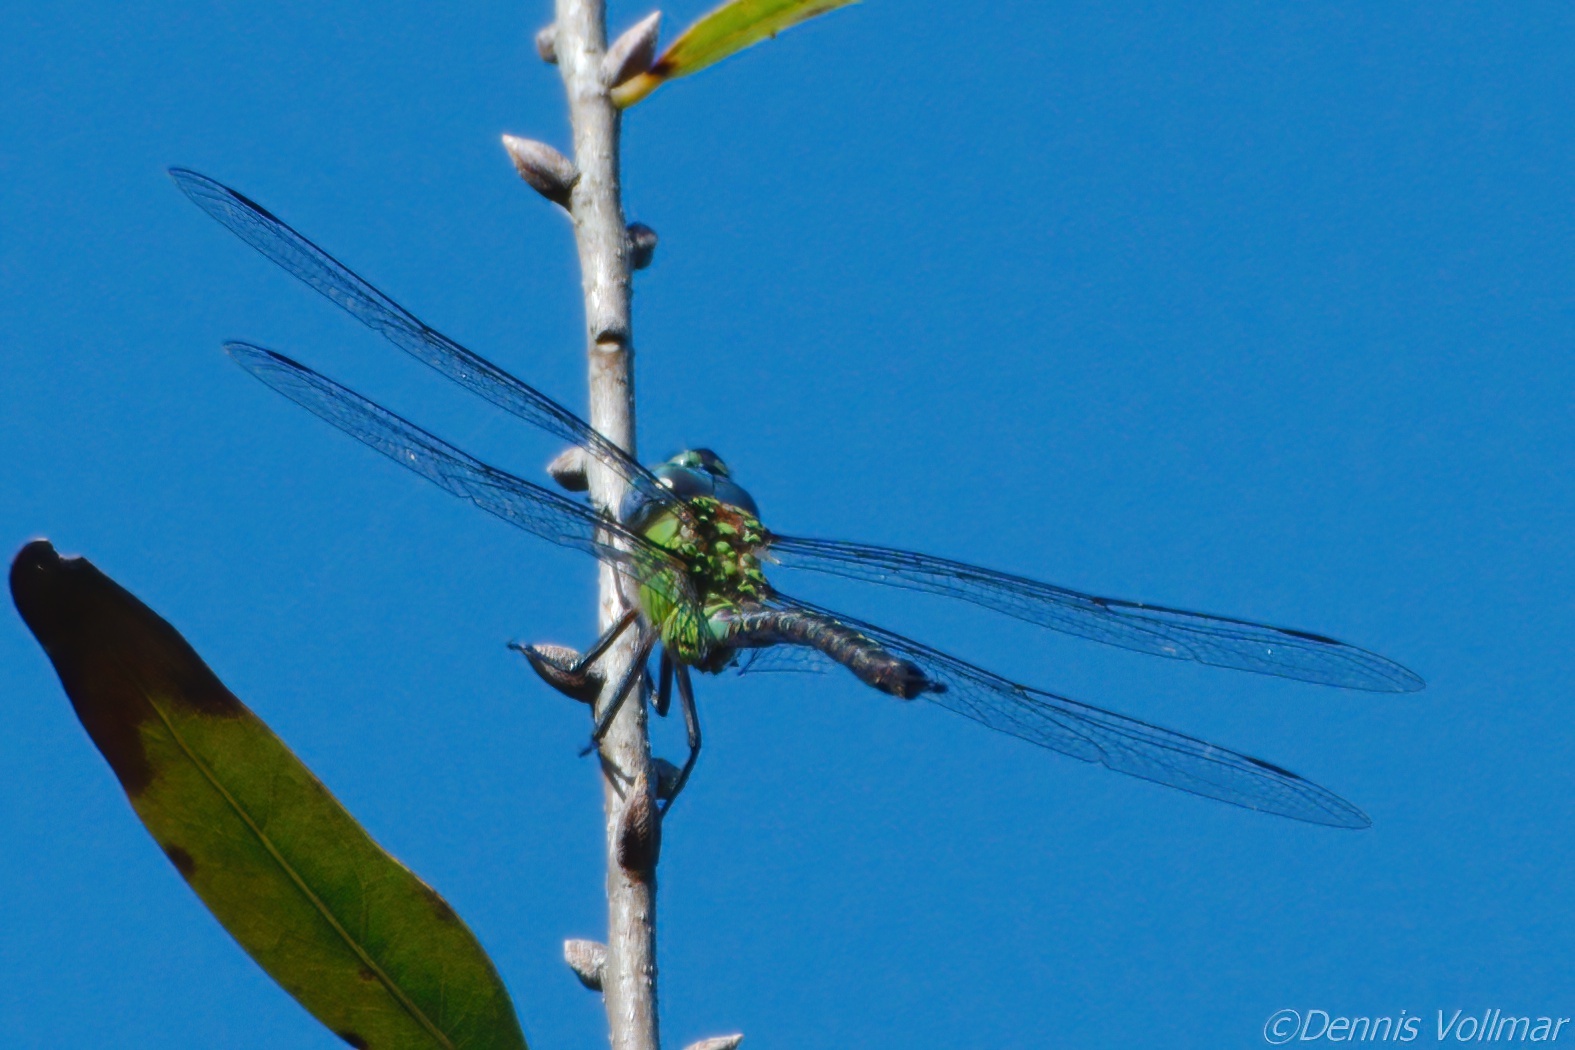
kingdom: Animalia
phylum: Arthropoda
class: Insecta
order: Odonata
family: Aeshnidae
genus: Coryphaeschna
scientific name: Coryphaeschna adnexa
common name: Blue-faced darner
